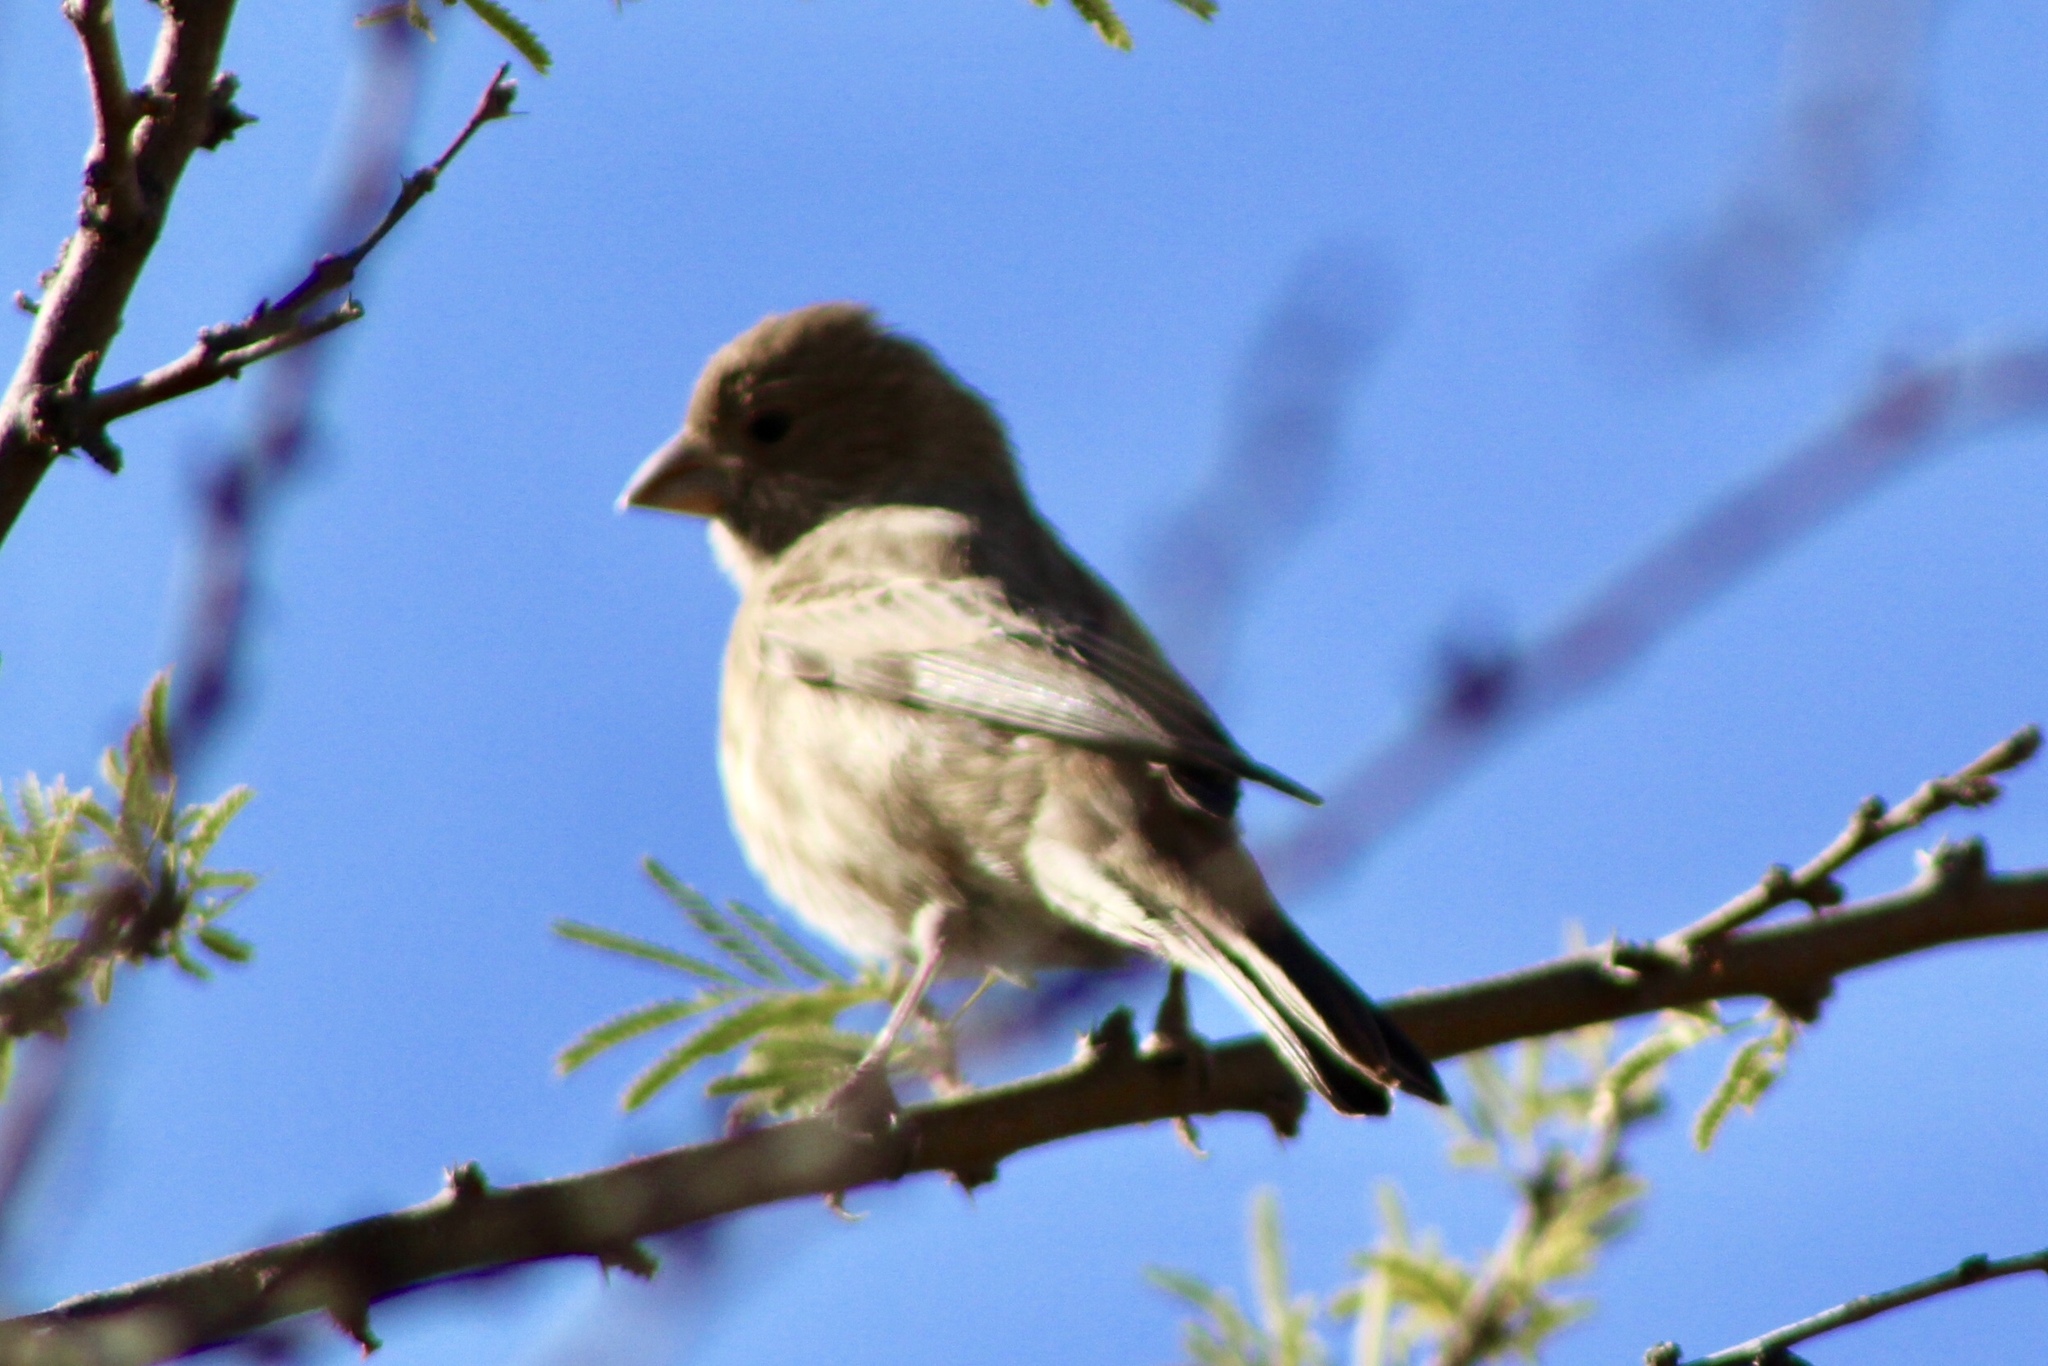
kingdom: Animalia
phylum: Chordata
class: Aves
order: Passeriformes
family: Fringillidae
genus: Haemorhous
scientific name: Haemorhous mexicanus
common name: House finch
